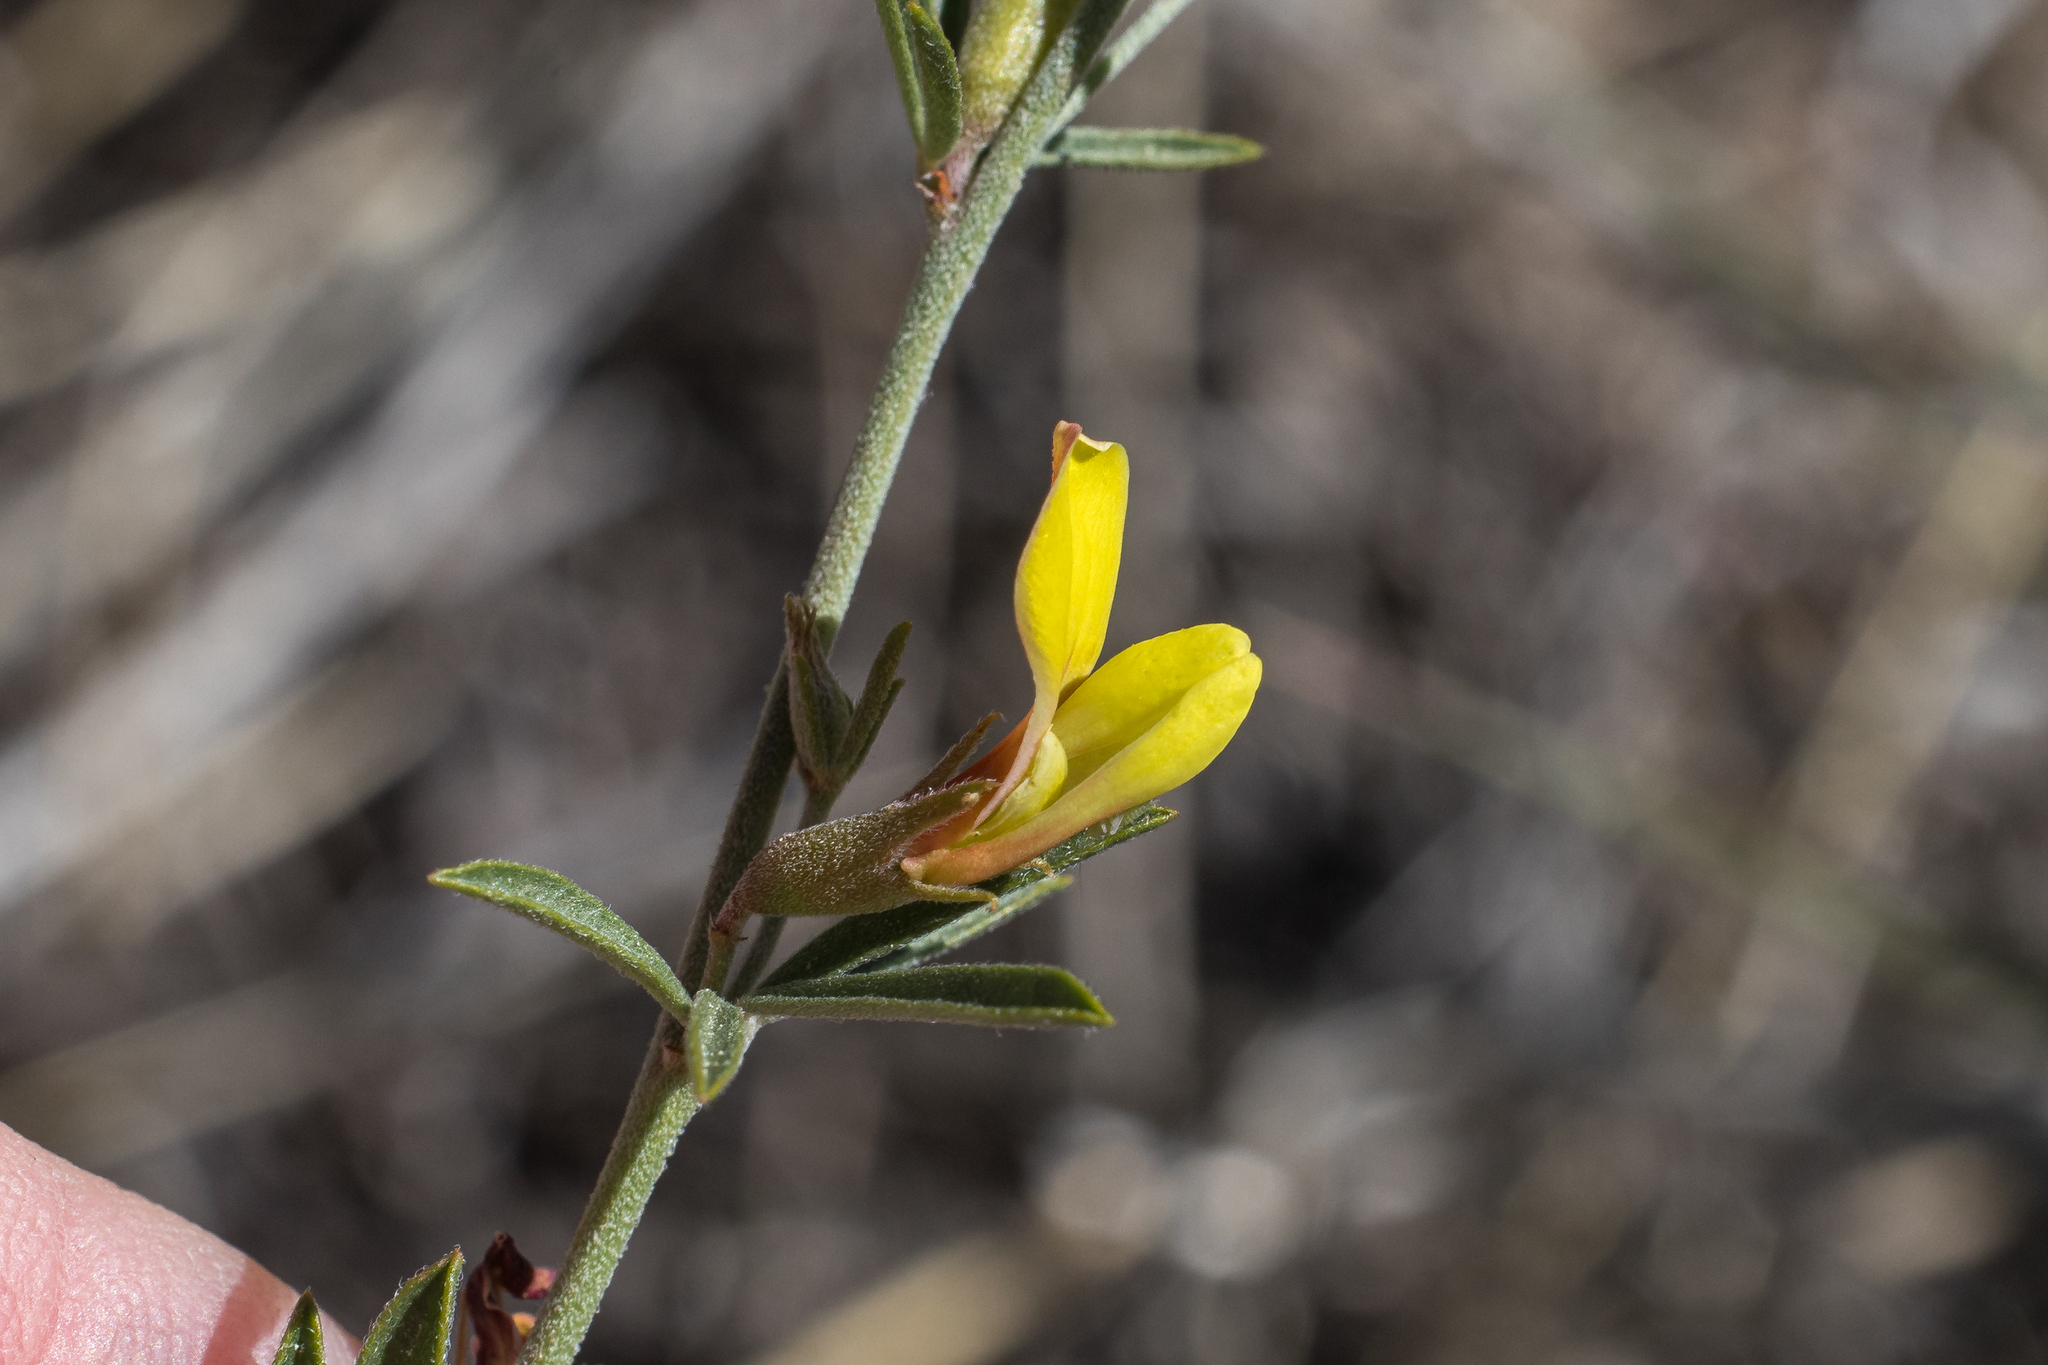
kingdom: Plantae
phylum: Tracheophyta
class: Magnoliopsida
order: Fabales
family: Fabaceae
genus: Acmispon
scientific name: Acmispon wrightii
